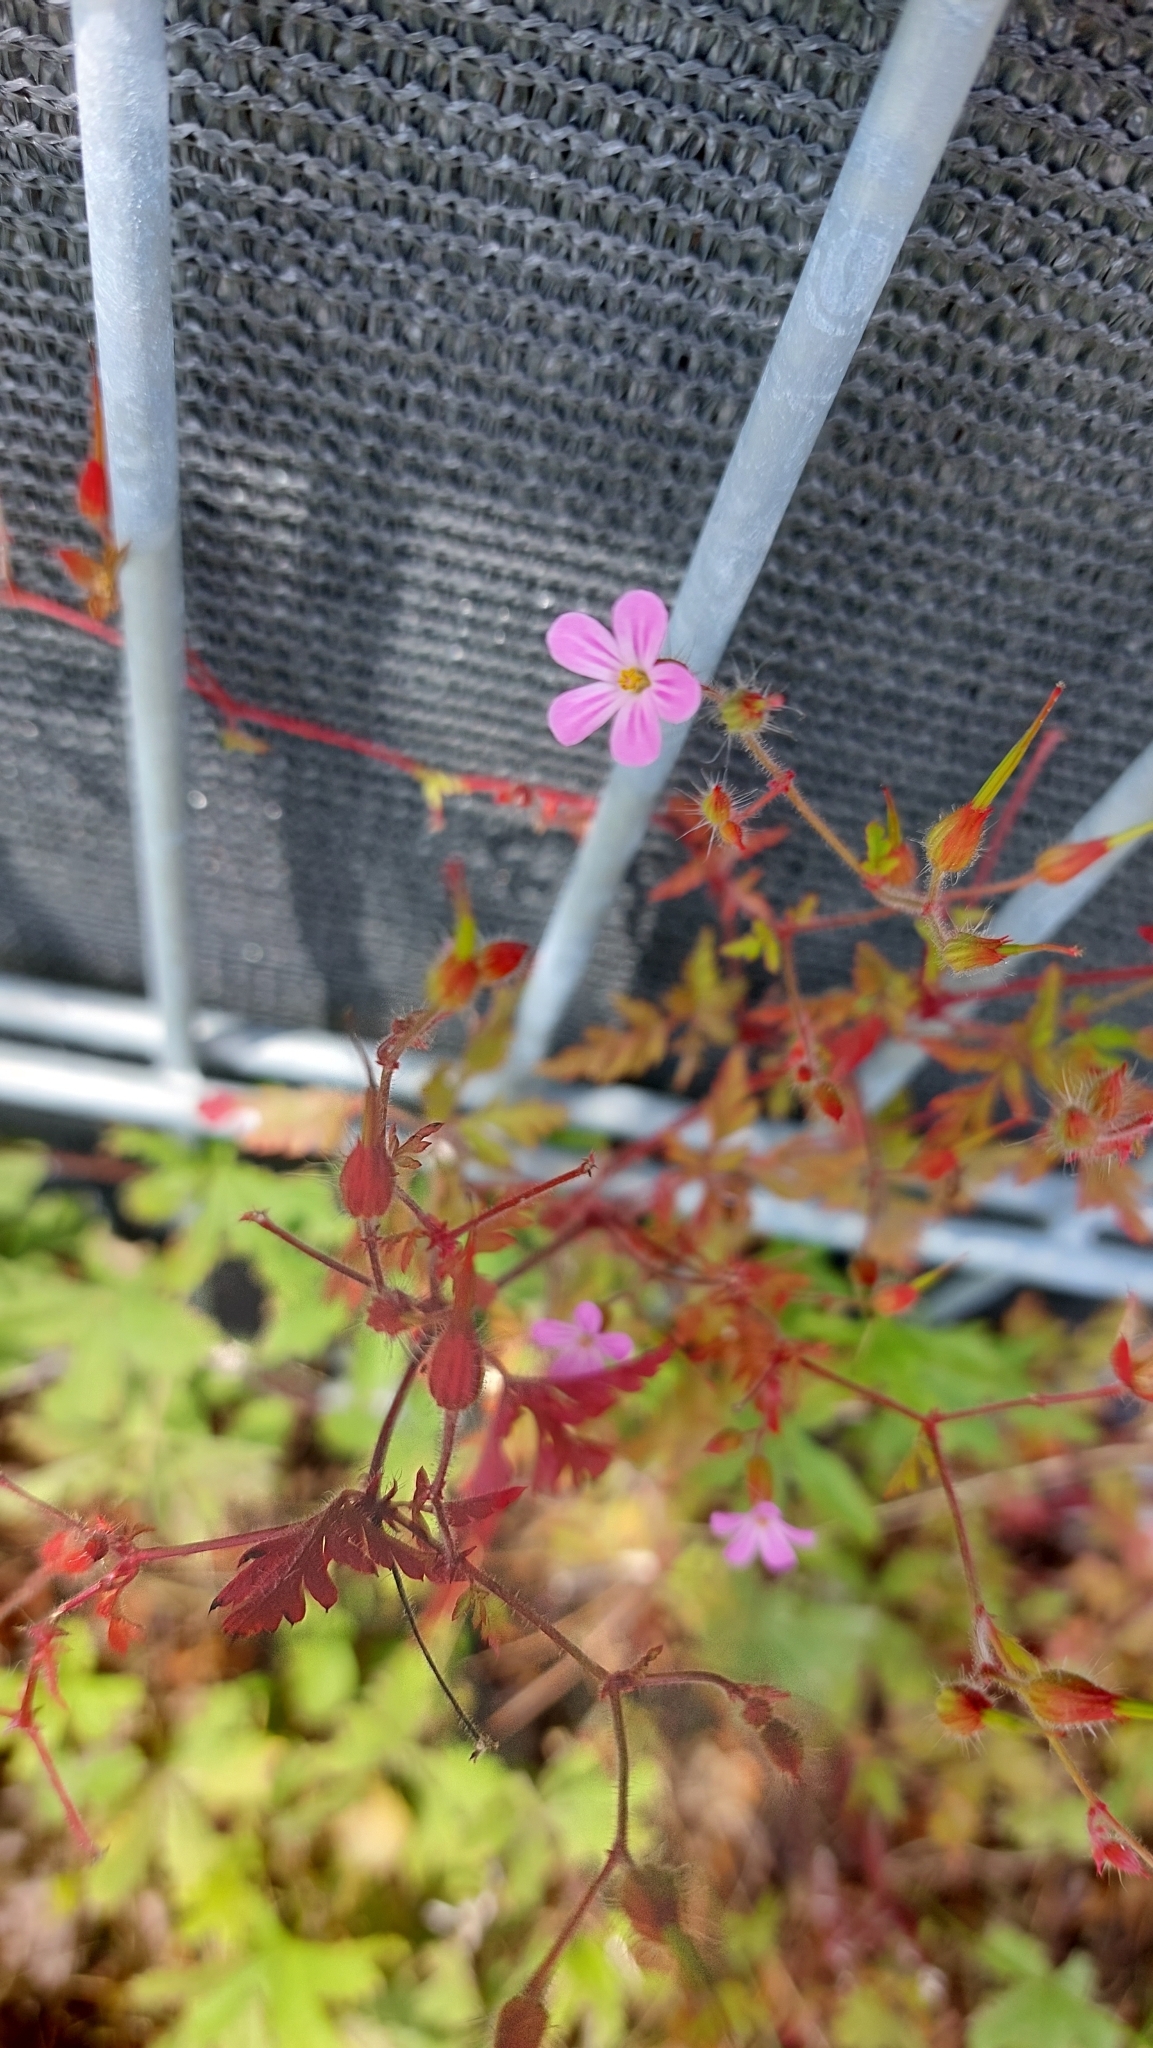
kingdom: Plantae
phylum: Tracheophyta
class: Magnoliopsida
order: Geraniales
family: Geraniaceae
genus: Geranium
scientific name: Geranium robertianum
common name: Herb-robert
